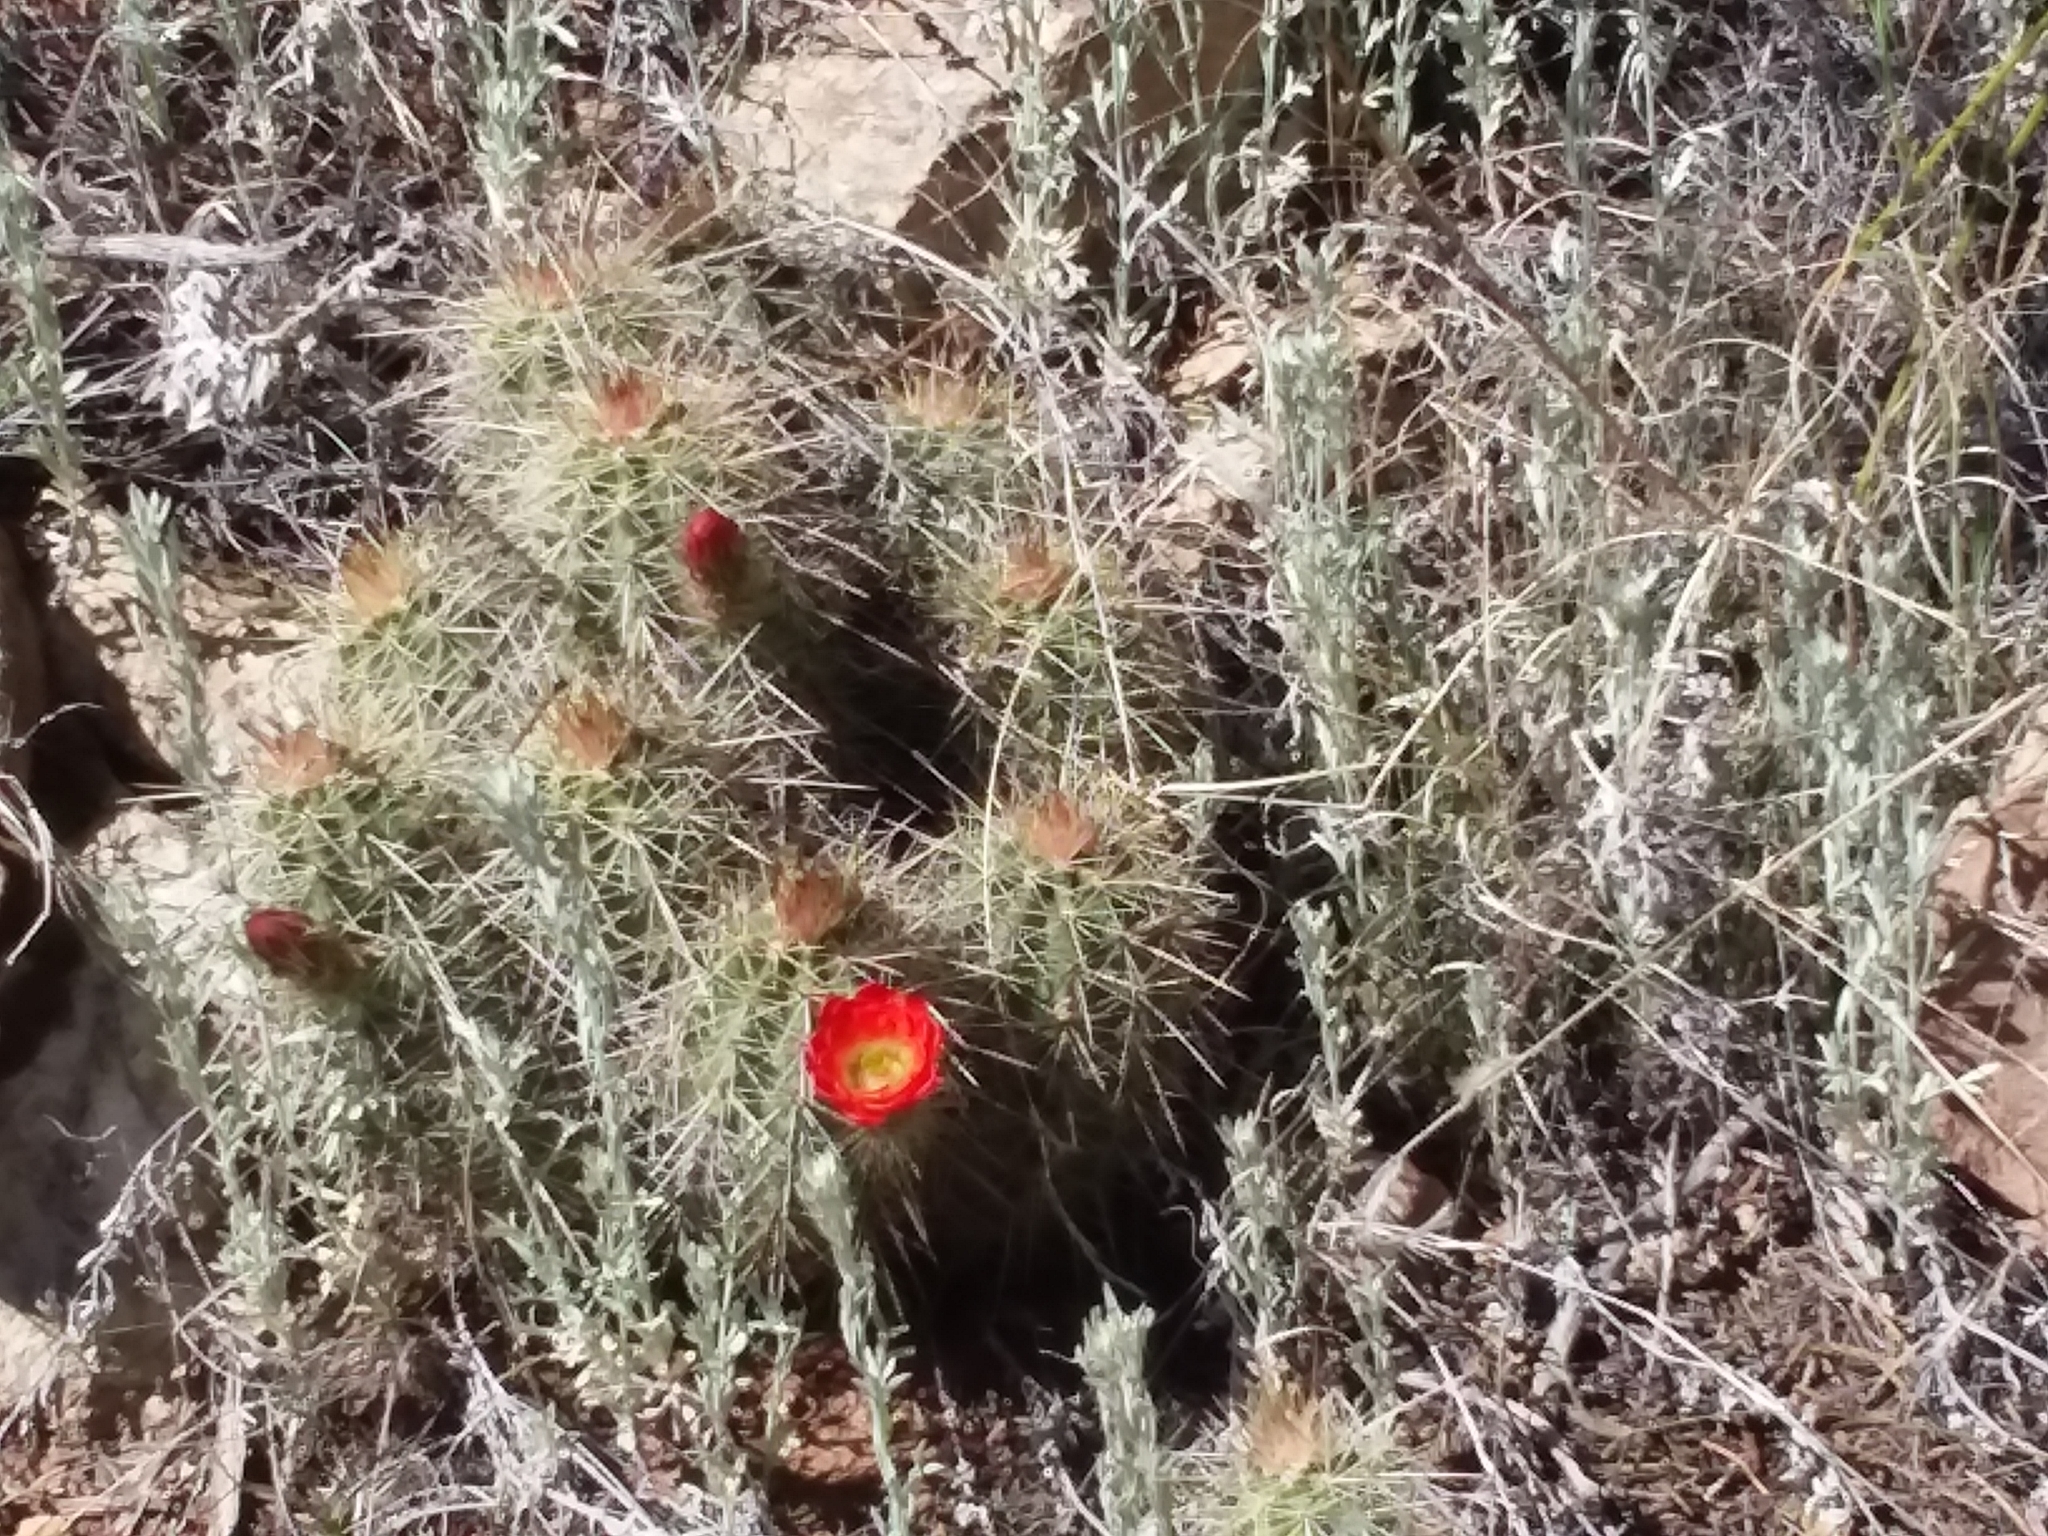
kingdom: Plantae
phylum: Tracheophyta
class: Magnoliopsida
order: Caryophyllales
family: Cactaceae
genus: Echinocereus
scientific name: Echinocereus coccineus
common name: Scarlet hedgehog cactus
